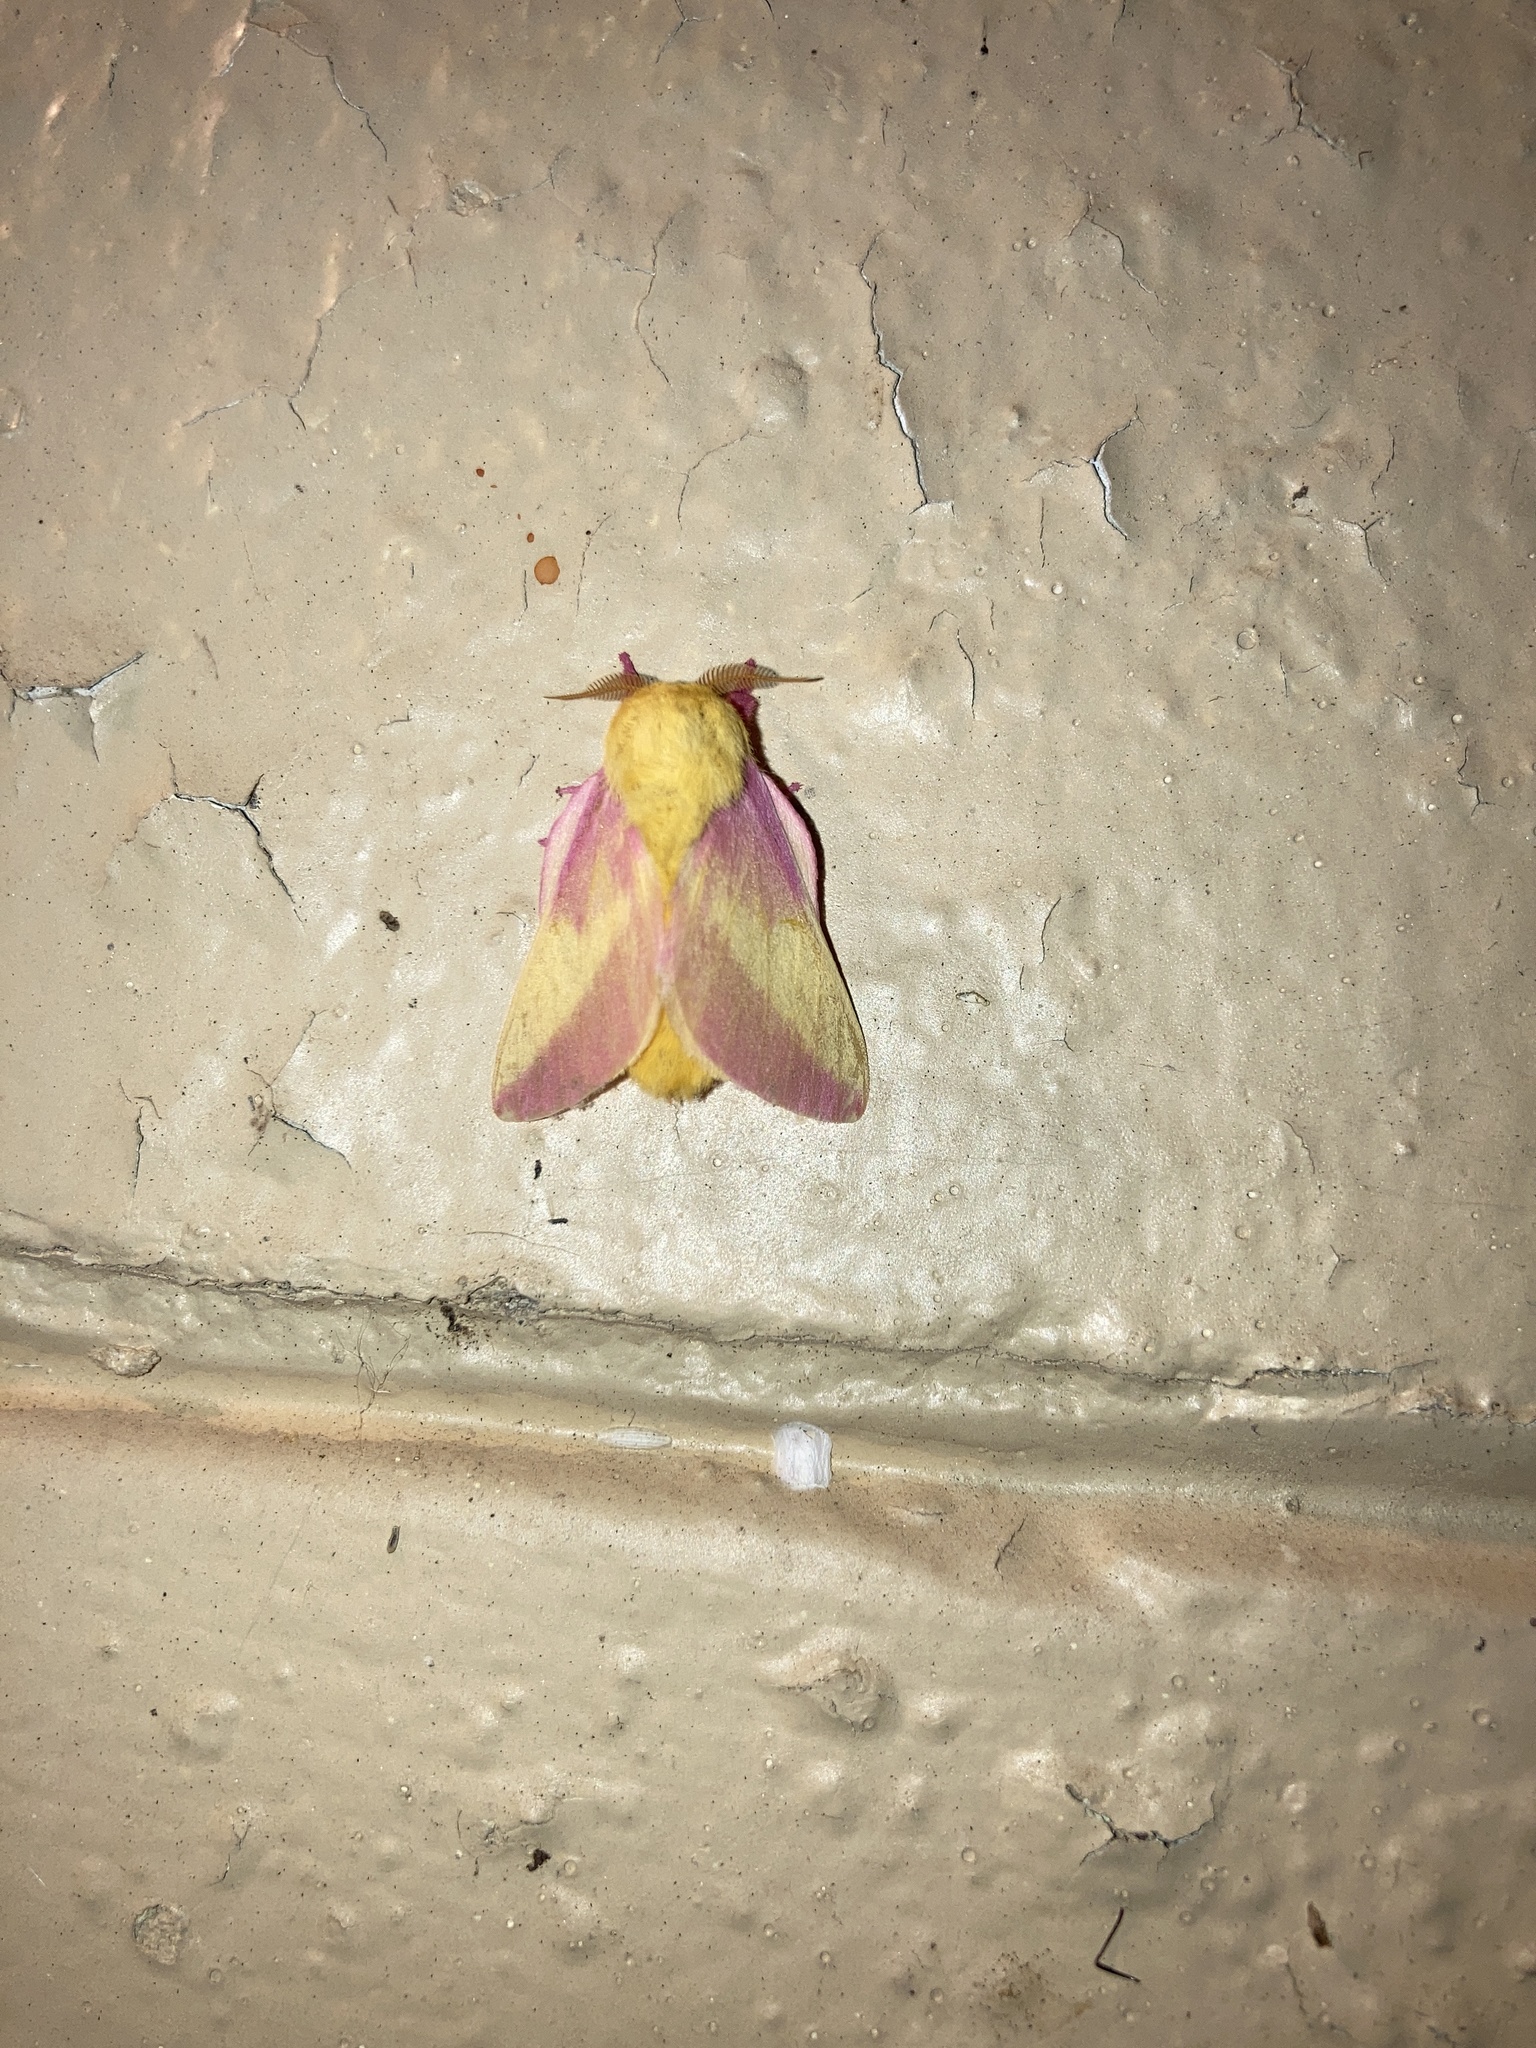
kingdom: Animalia
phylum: Arthropoda
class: Insecta
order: Lepidoptera
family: Saturniidae
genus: Dryocampa
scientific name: Dryocampa rubicunda
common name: Rosy maple moth
